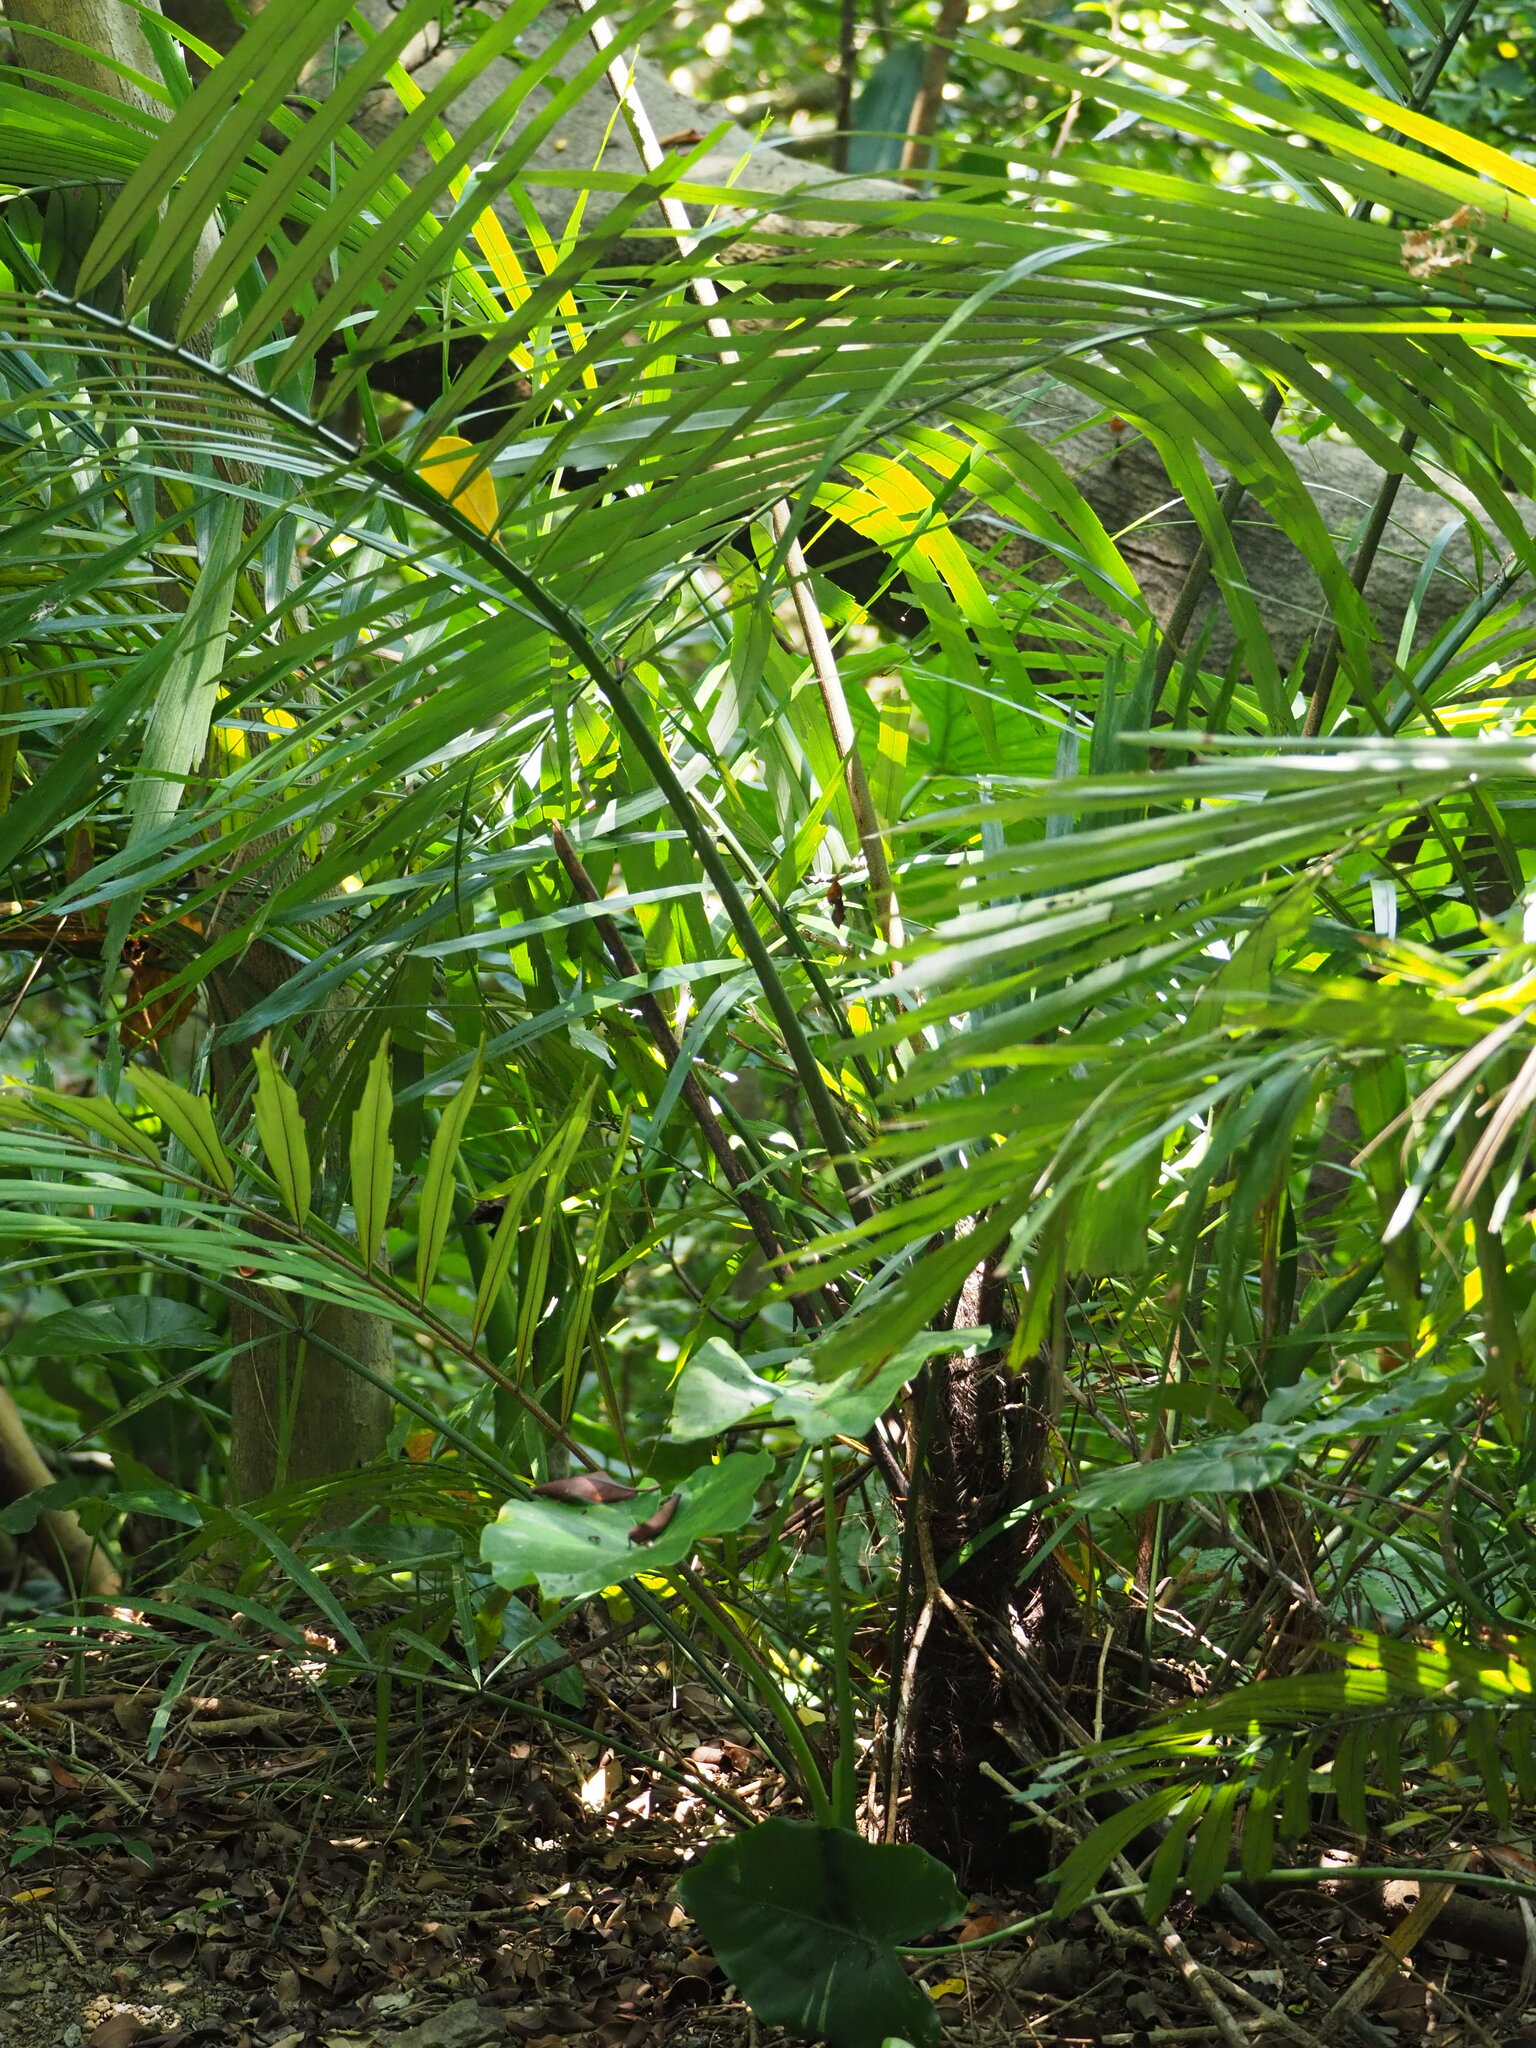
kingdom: Plantae
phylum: Tracheophyta
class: Liliopsida
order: Arecales
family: Arecaceae
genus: Arenga
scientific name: Arenga engleri
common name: Formosan sugar palm
